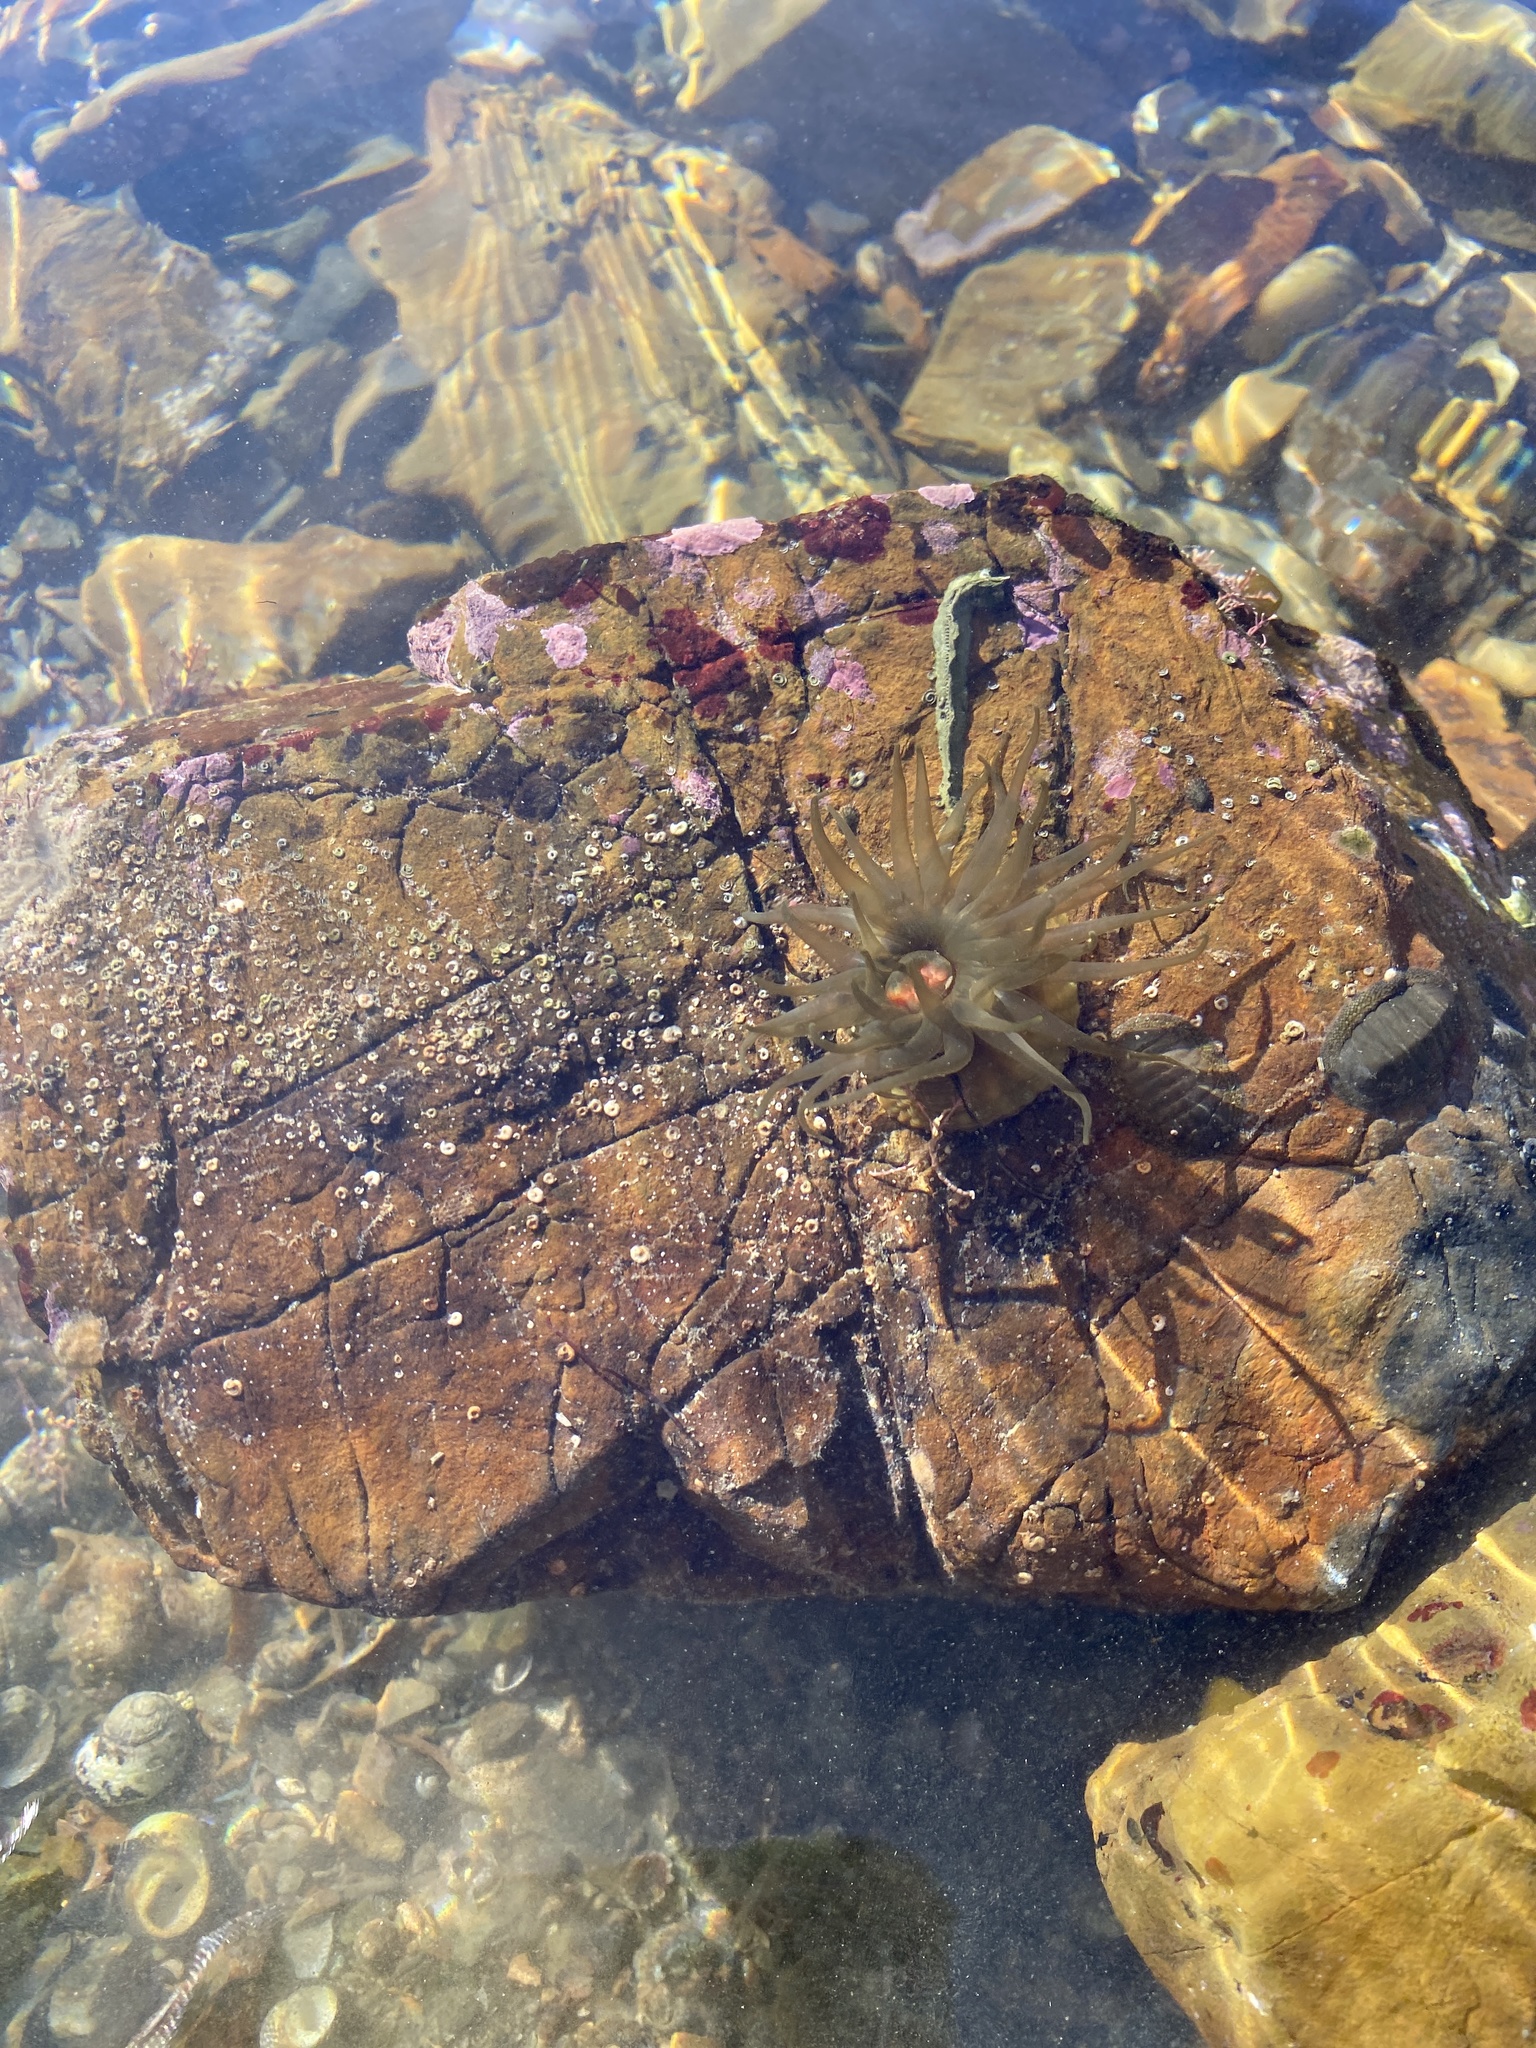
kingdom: Animalia
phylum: Cnidaria
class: Anthozoa
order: Actiniaria
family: Actiniidae
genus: Isactinia
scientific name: Isactinia olivacea
